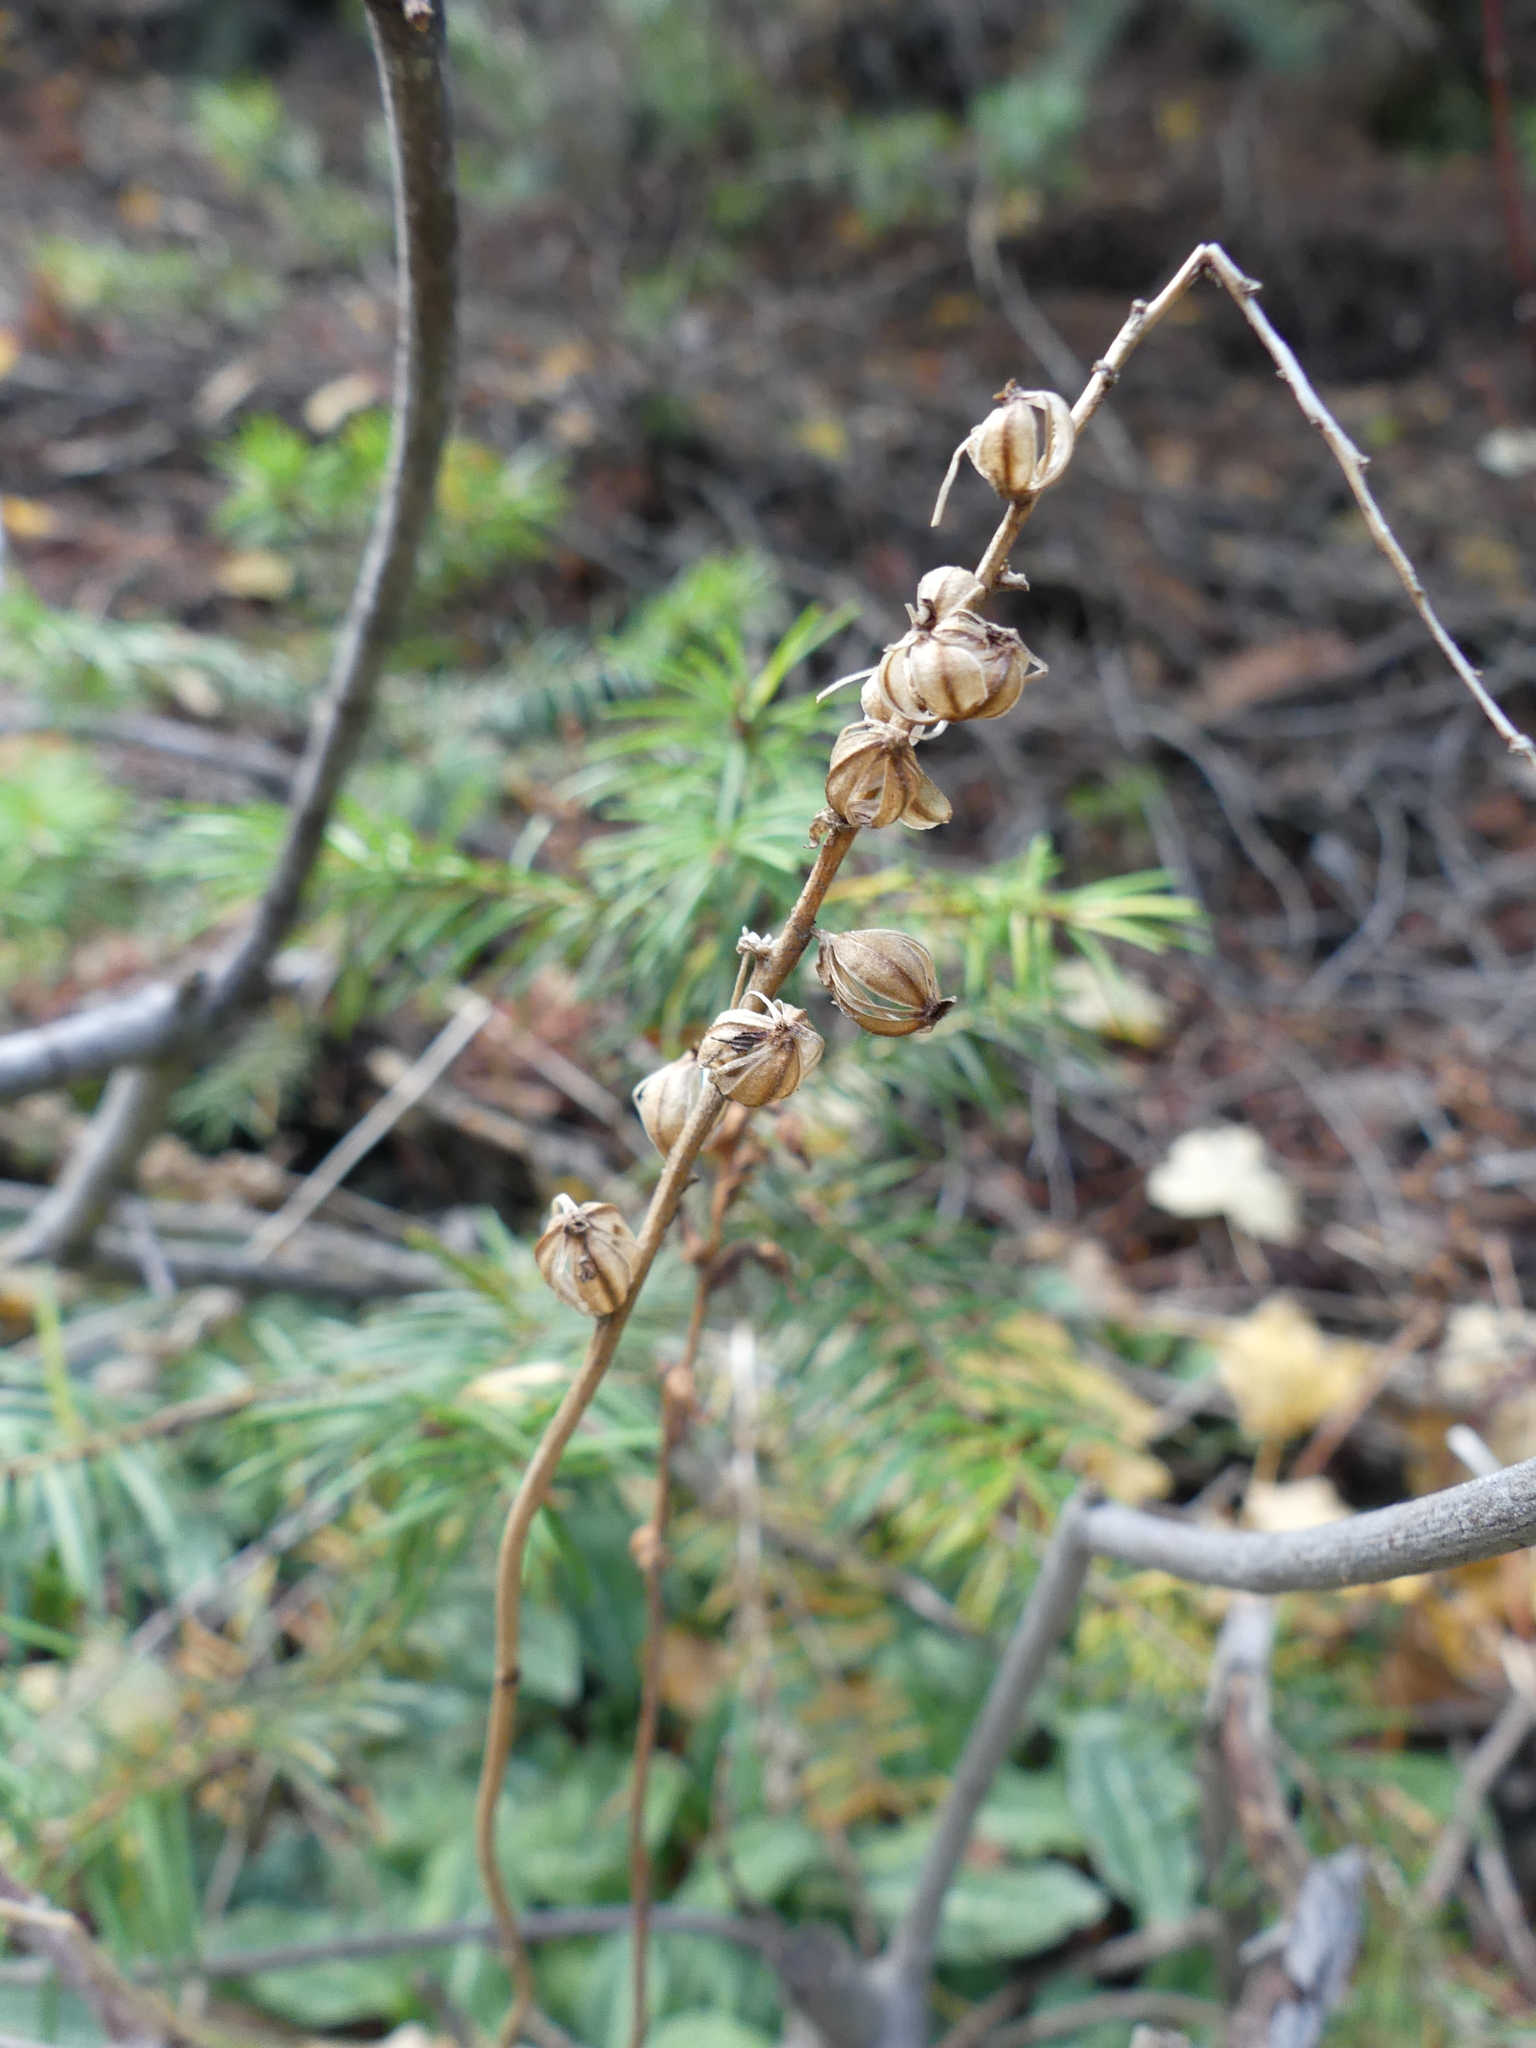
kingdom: Plantae
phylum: Tracheophyta
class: Liliopsida
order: Asparagales
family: Orchidaceae
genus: Goodyera
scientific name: Goodyera oblongifolia
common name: Giant rattlesnake-plantain
